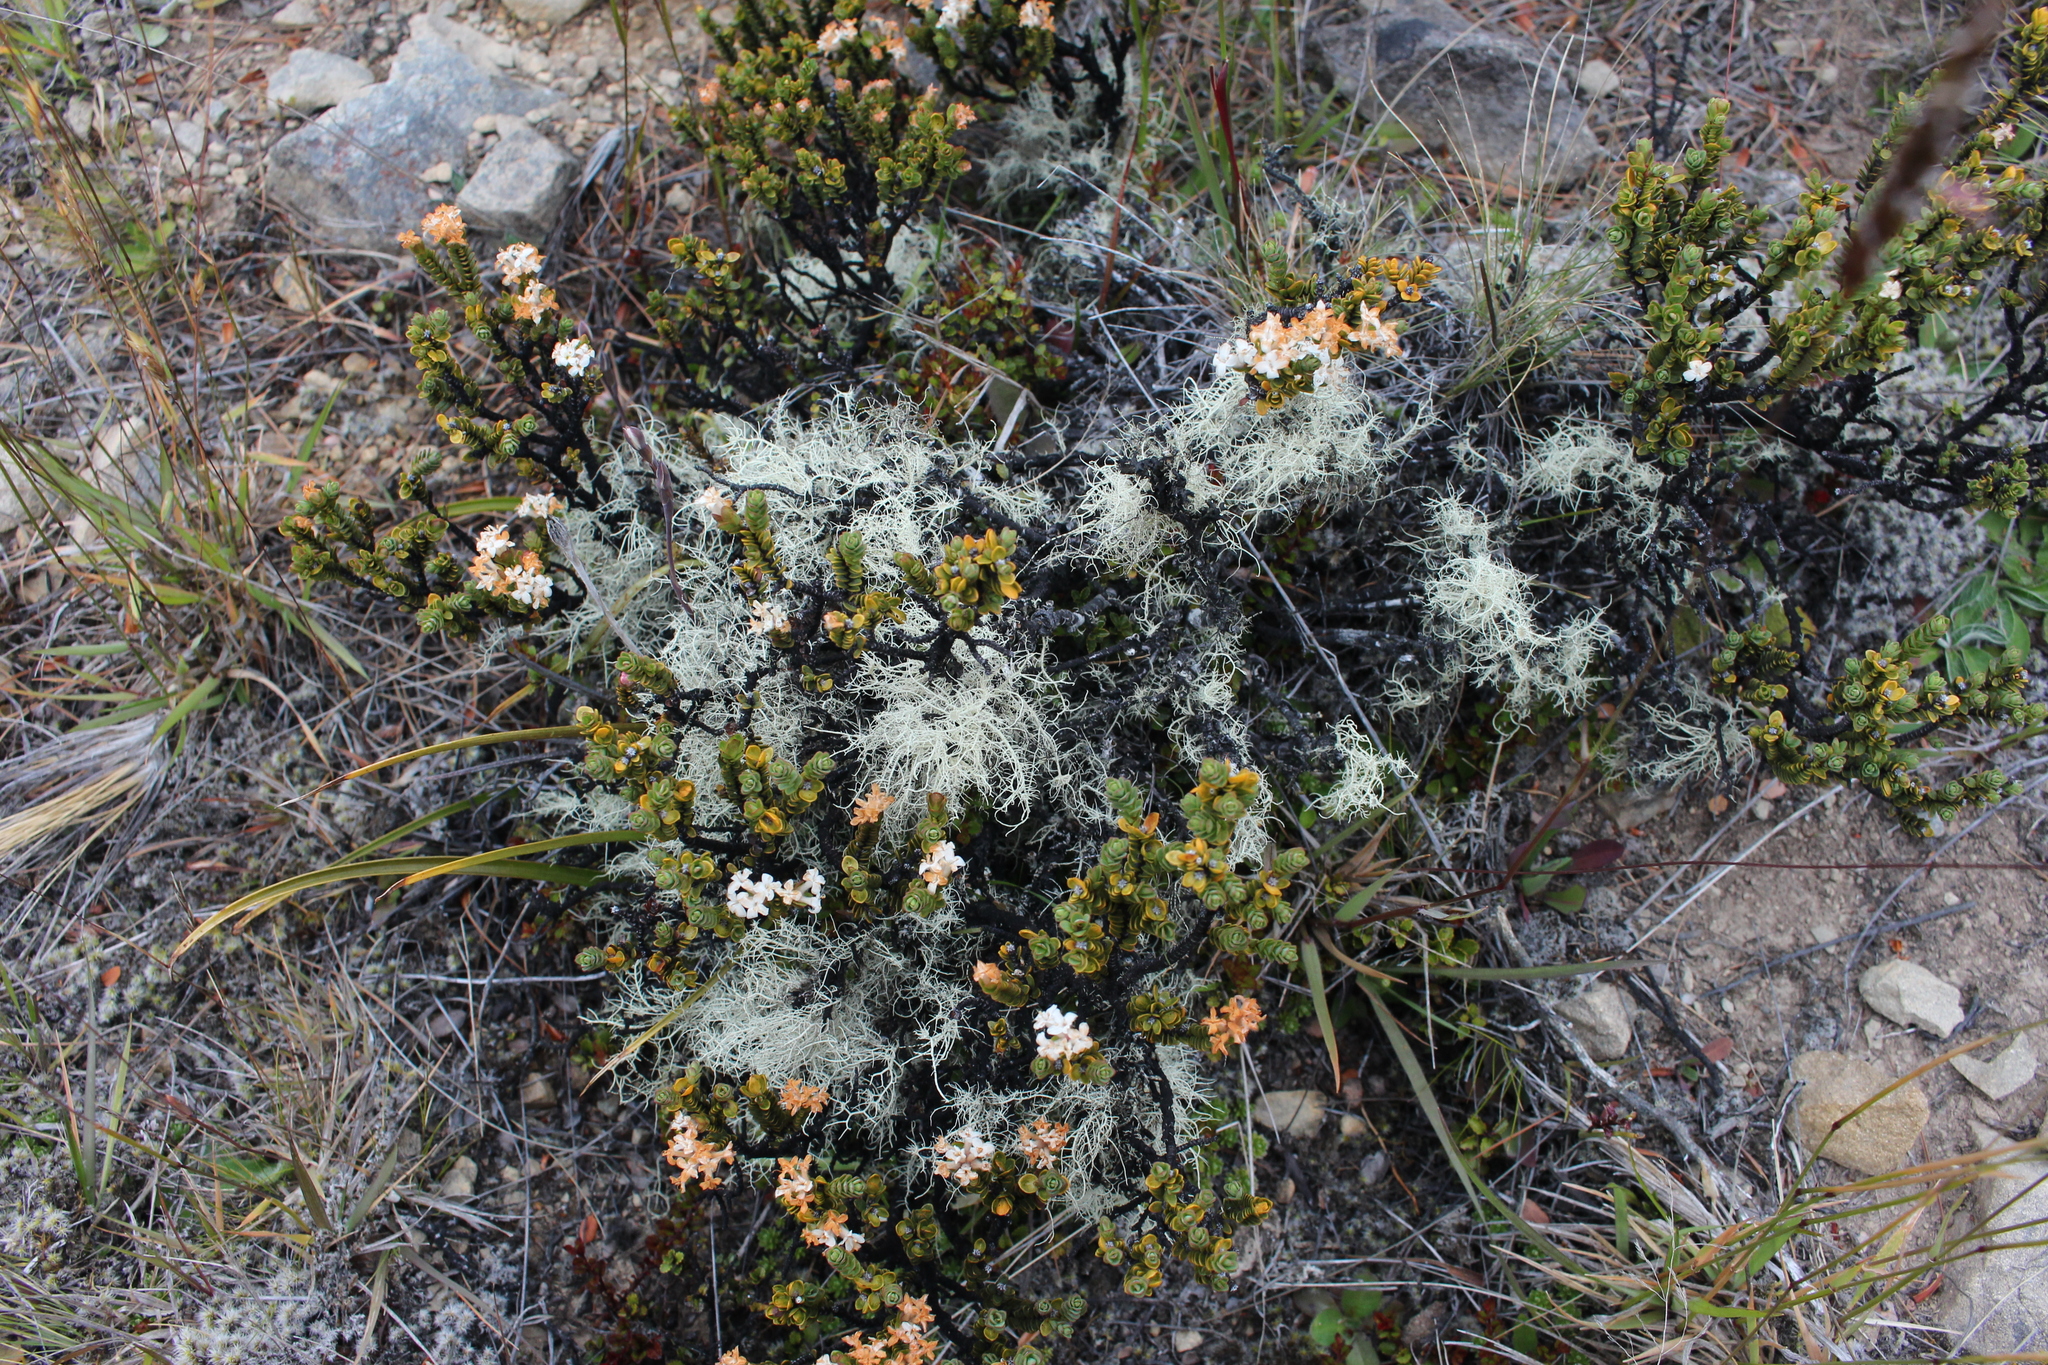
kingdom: Plantae
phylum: Tracheophyta
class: Magnoliopsida
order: Malvales
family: Thymelaeaceae
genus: Pimelea
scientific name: Pimelea traversii
